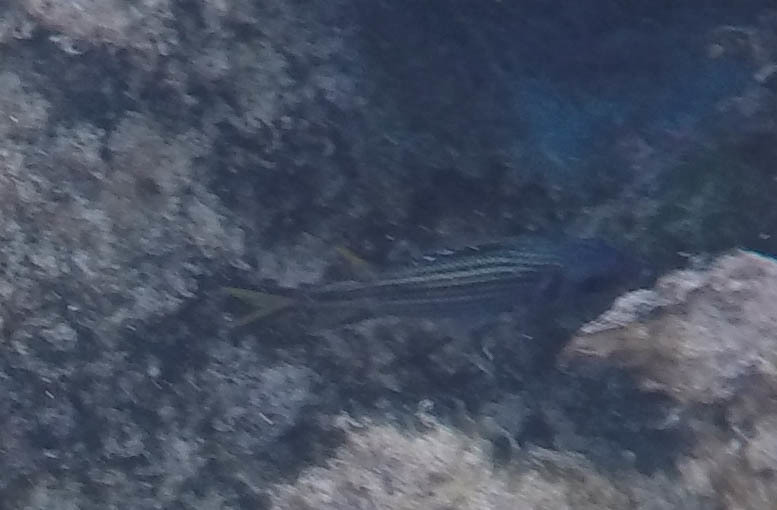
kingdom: Animalia
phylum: Chordata
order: Beryciformes
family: Holocentridae
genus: Neoniphon
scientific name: Neoniphon sammara
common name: Sammara squirrelfish
